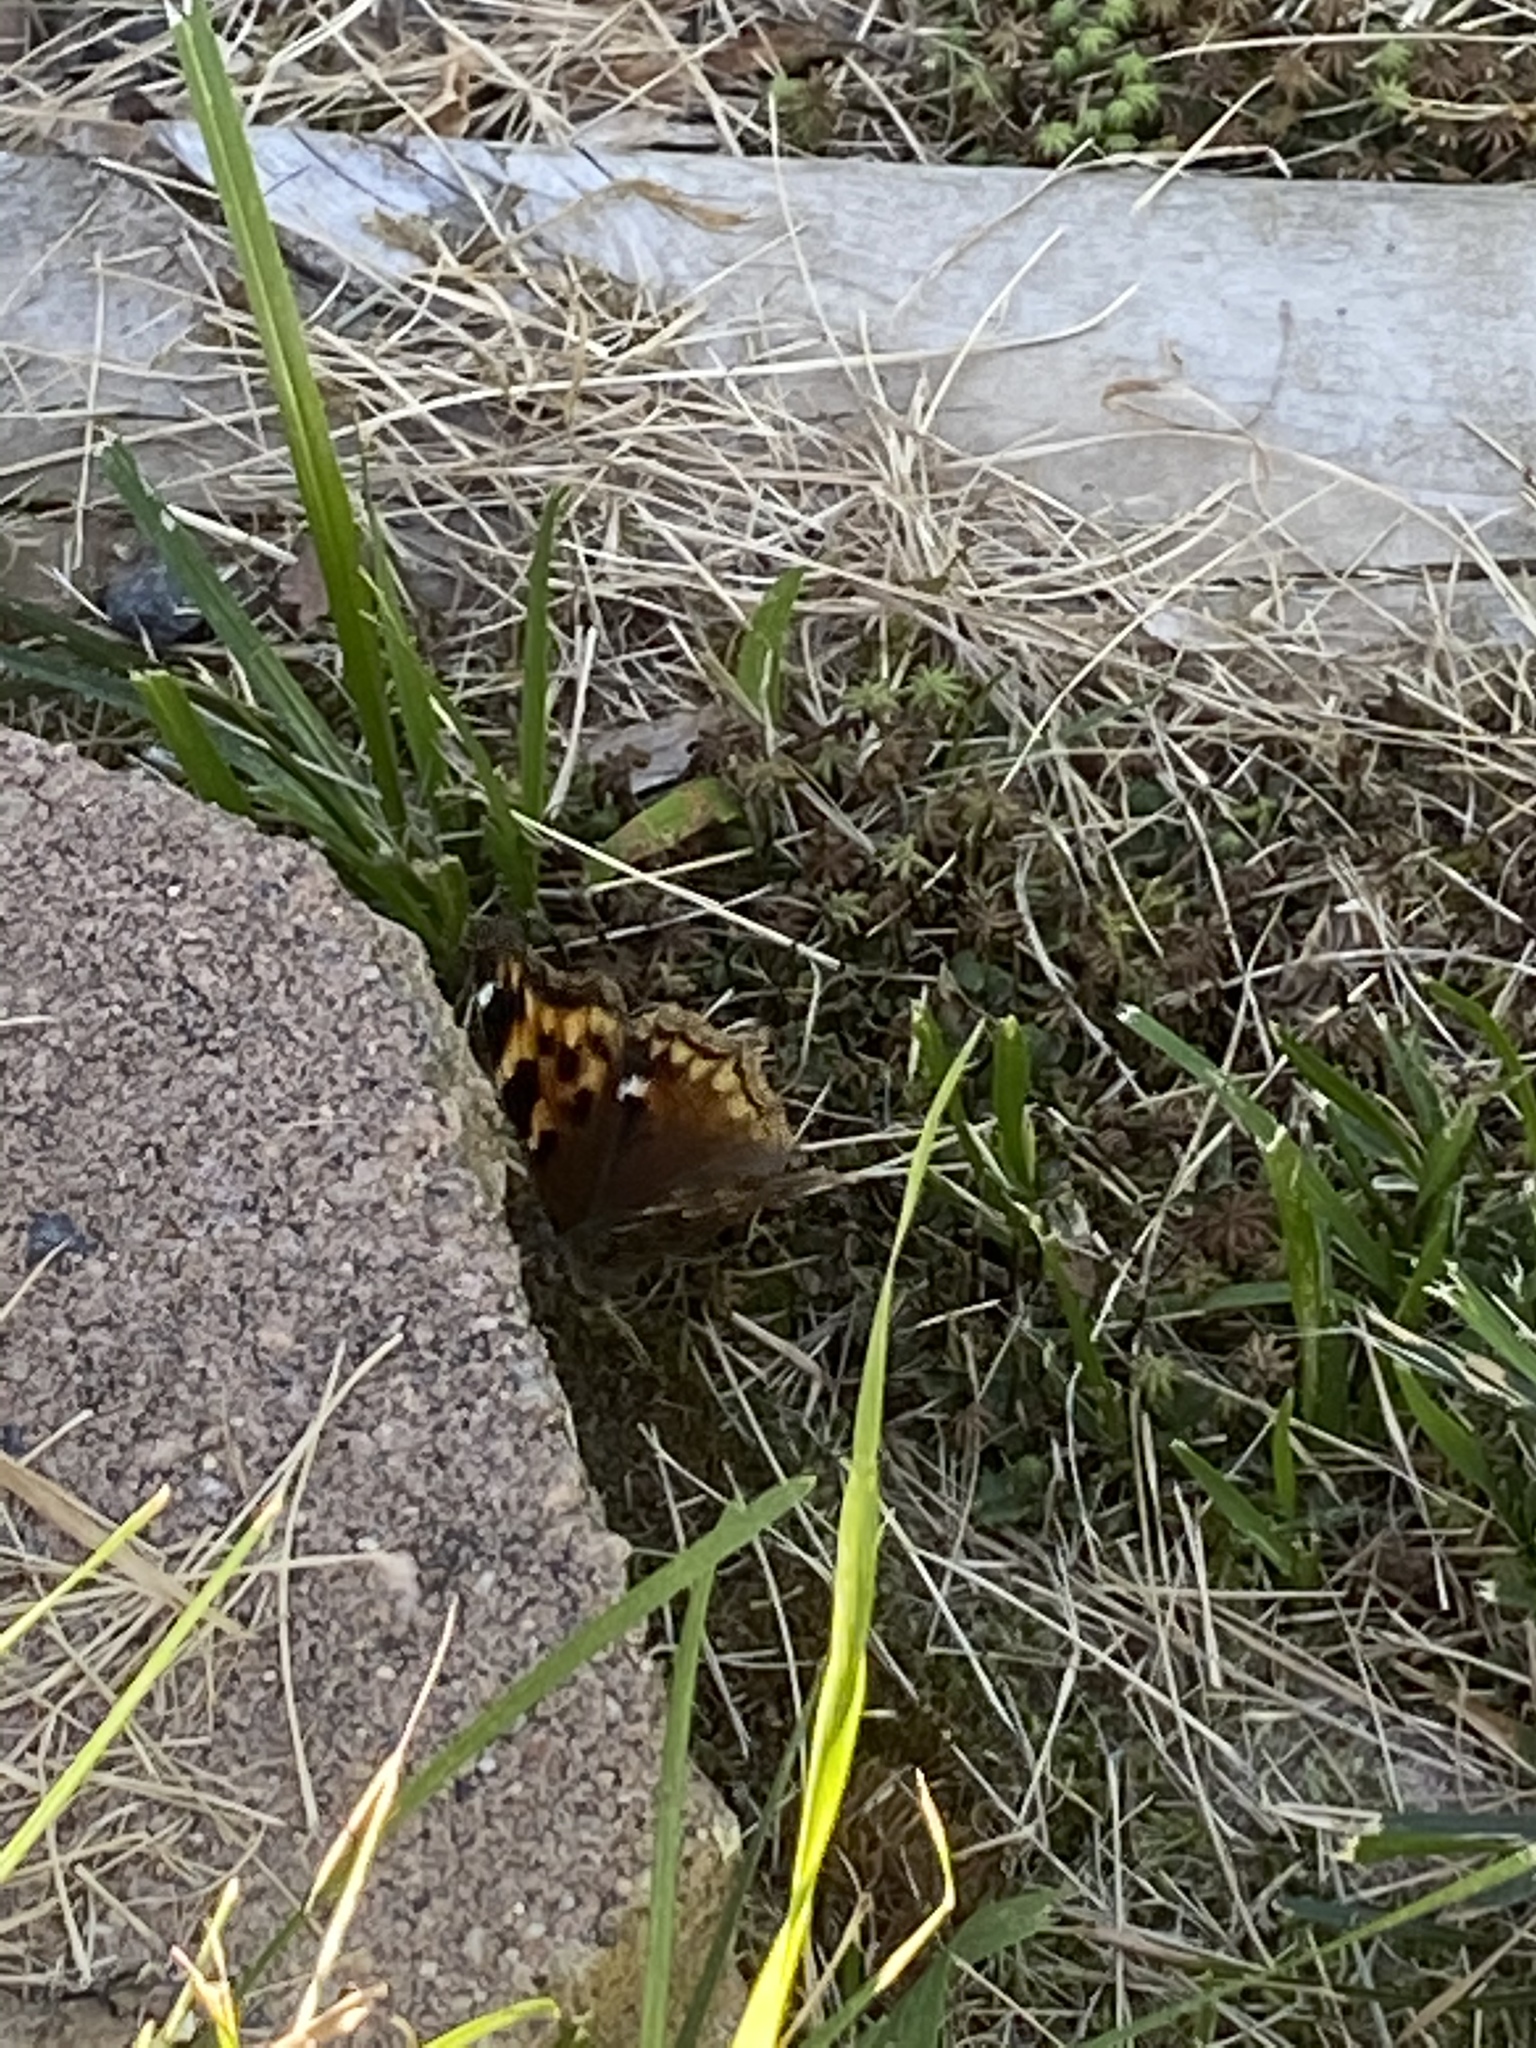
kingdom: Animalia
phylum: Arthropoda
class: Insecta
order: Lepidoptera
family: Nymphalidae
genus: Polygonia
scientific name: Polygonia vaualbum
